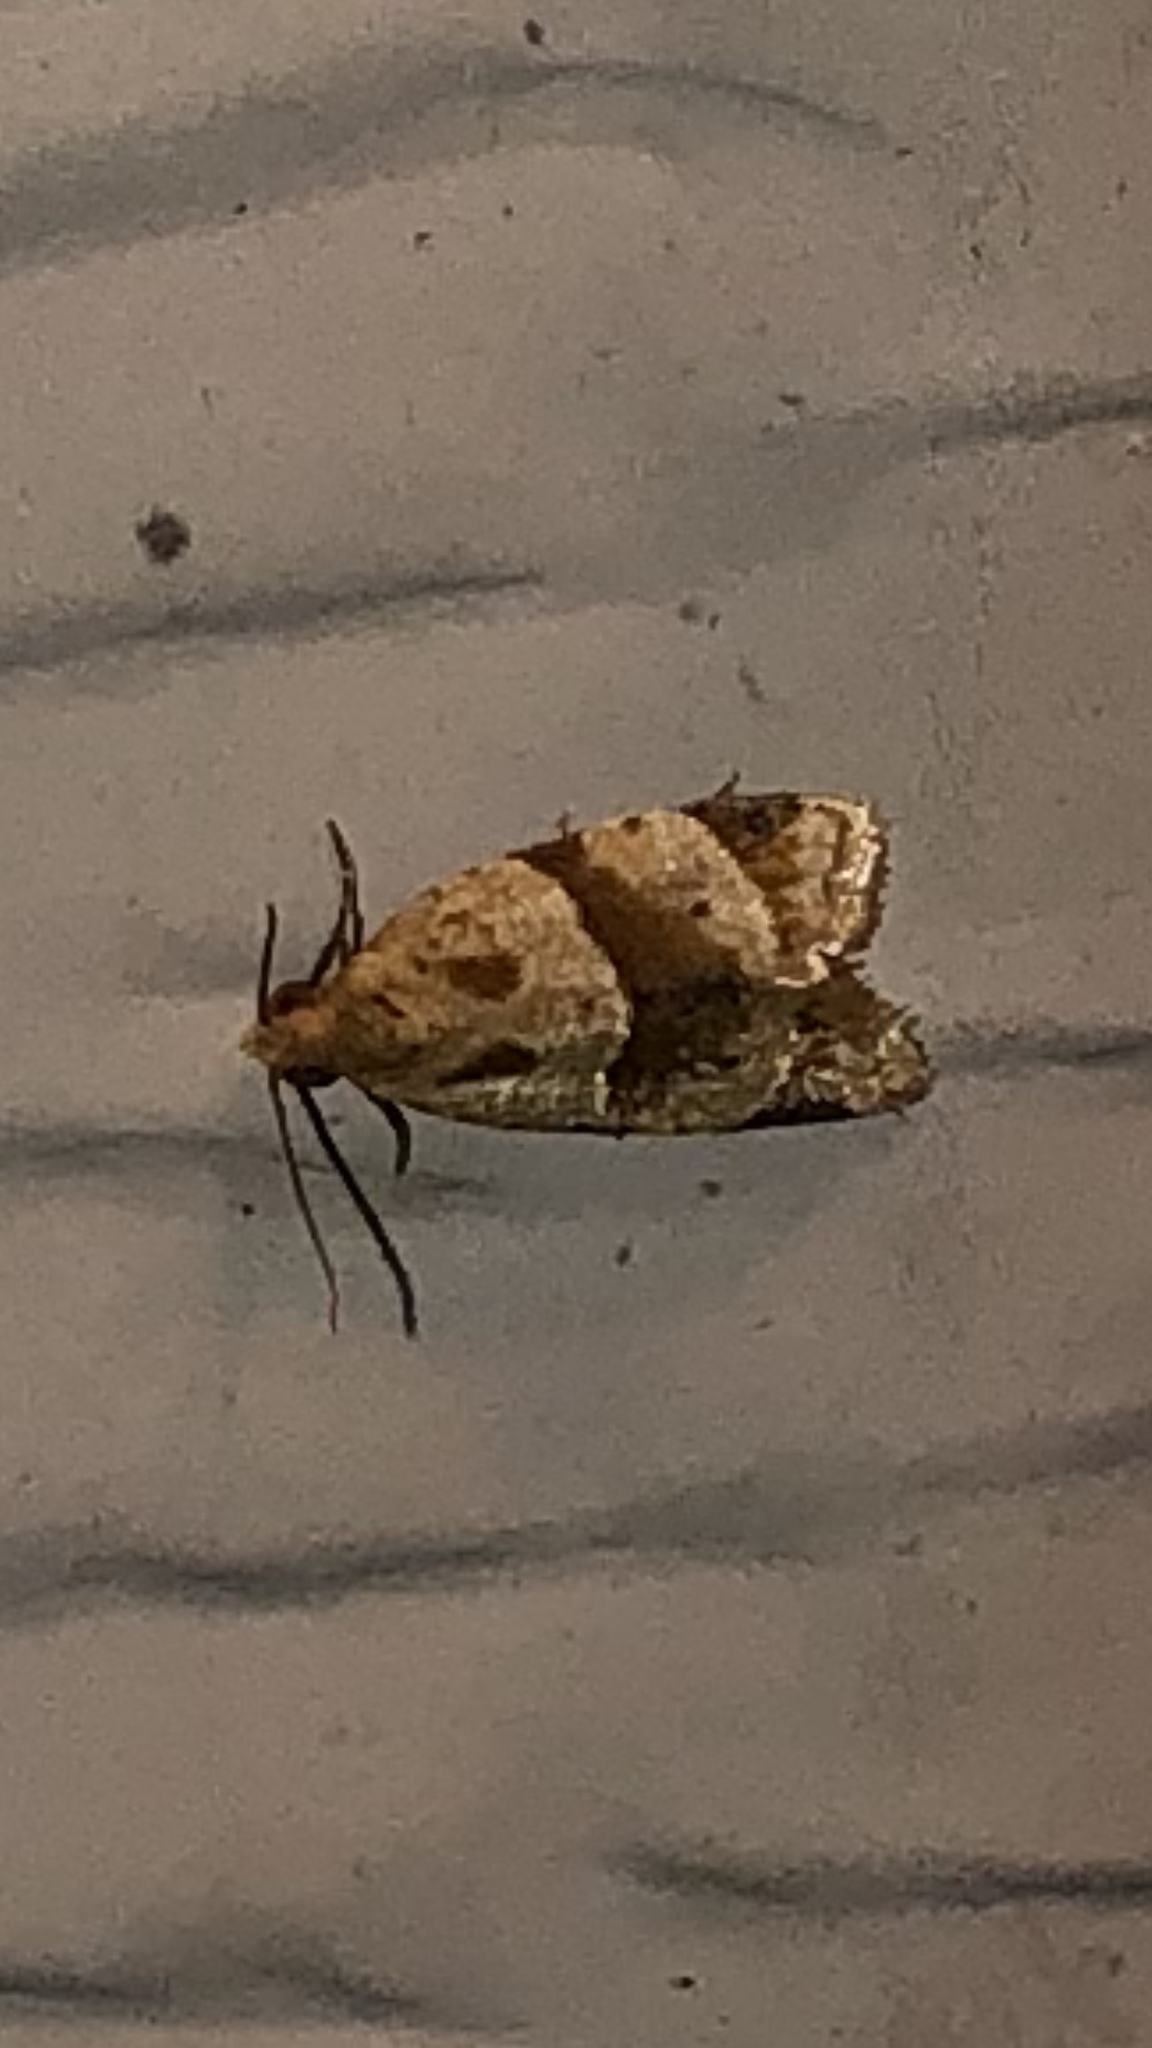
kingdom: Animalia
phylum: Arthropoda
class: Insecta
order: Lepidoptera
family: Tortricidae
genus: Clepsis
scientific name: Clepsis peritana
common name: Garden tortrix
